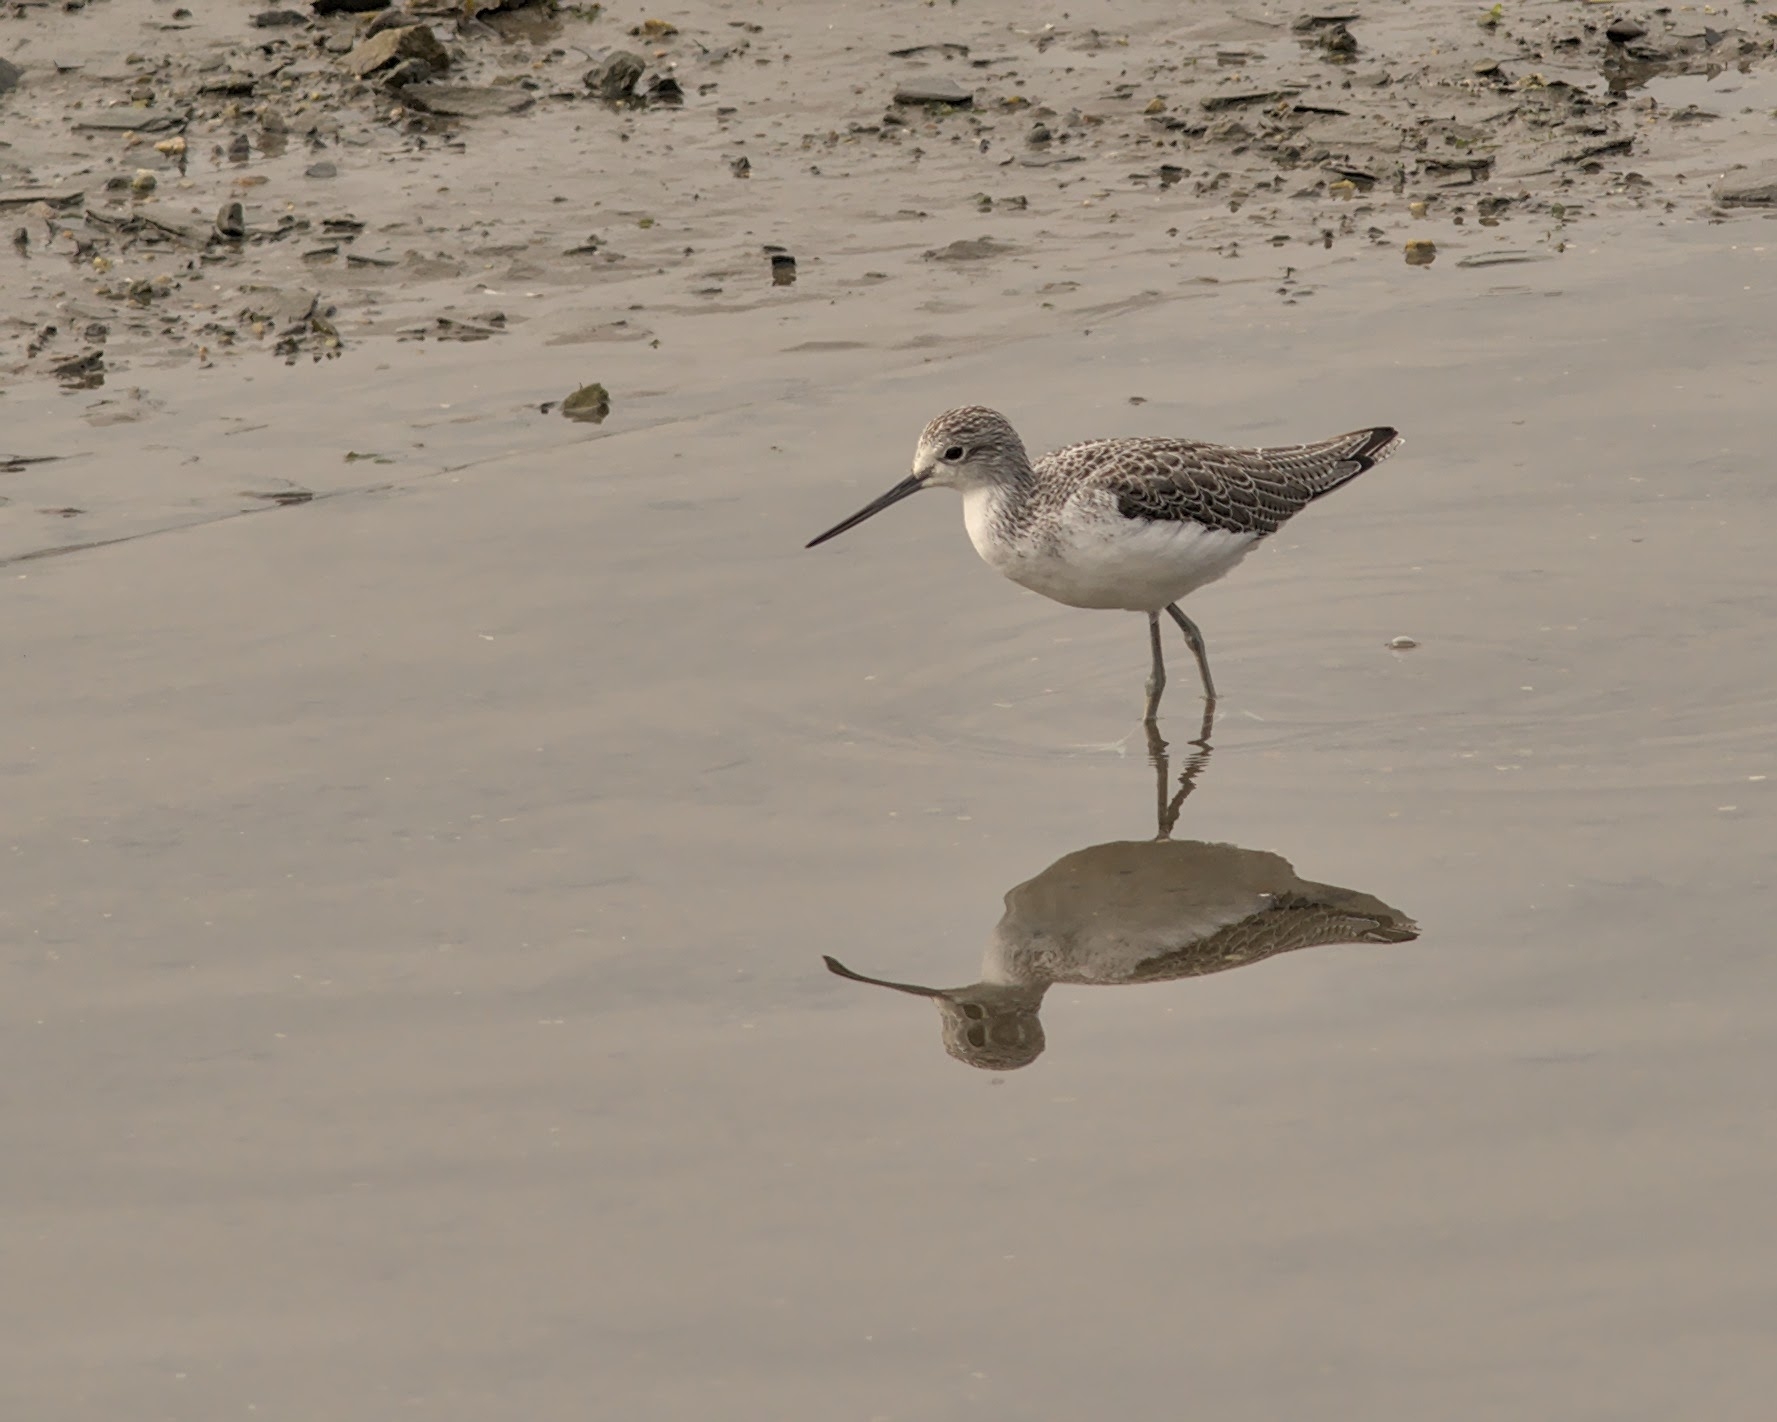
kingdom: Animalia
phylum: Chordata
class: Aves
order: Charadriiformes
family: Scolopacidae
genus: Tringa
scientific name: Tringa nebularia
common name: Common greenshank
